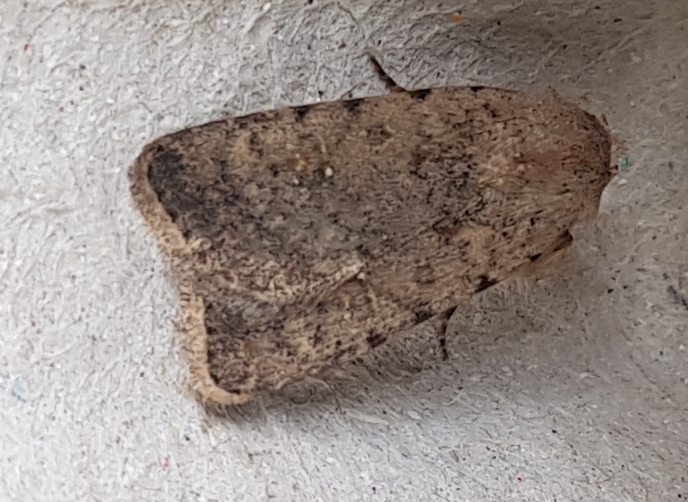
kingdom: Animalia
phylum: Arthropoda
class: Insecta
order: Lepidoptera
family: Noctuidae
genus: Caradrina
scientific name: Caradrina clavipalpis
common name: Pale mottled willow
